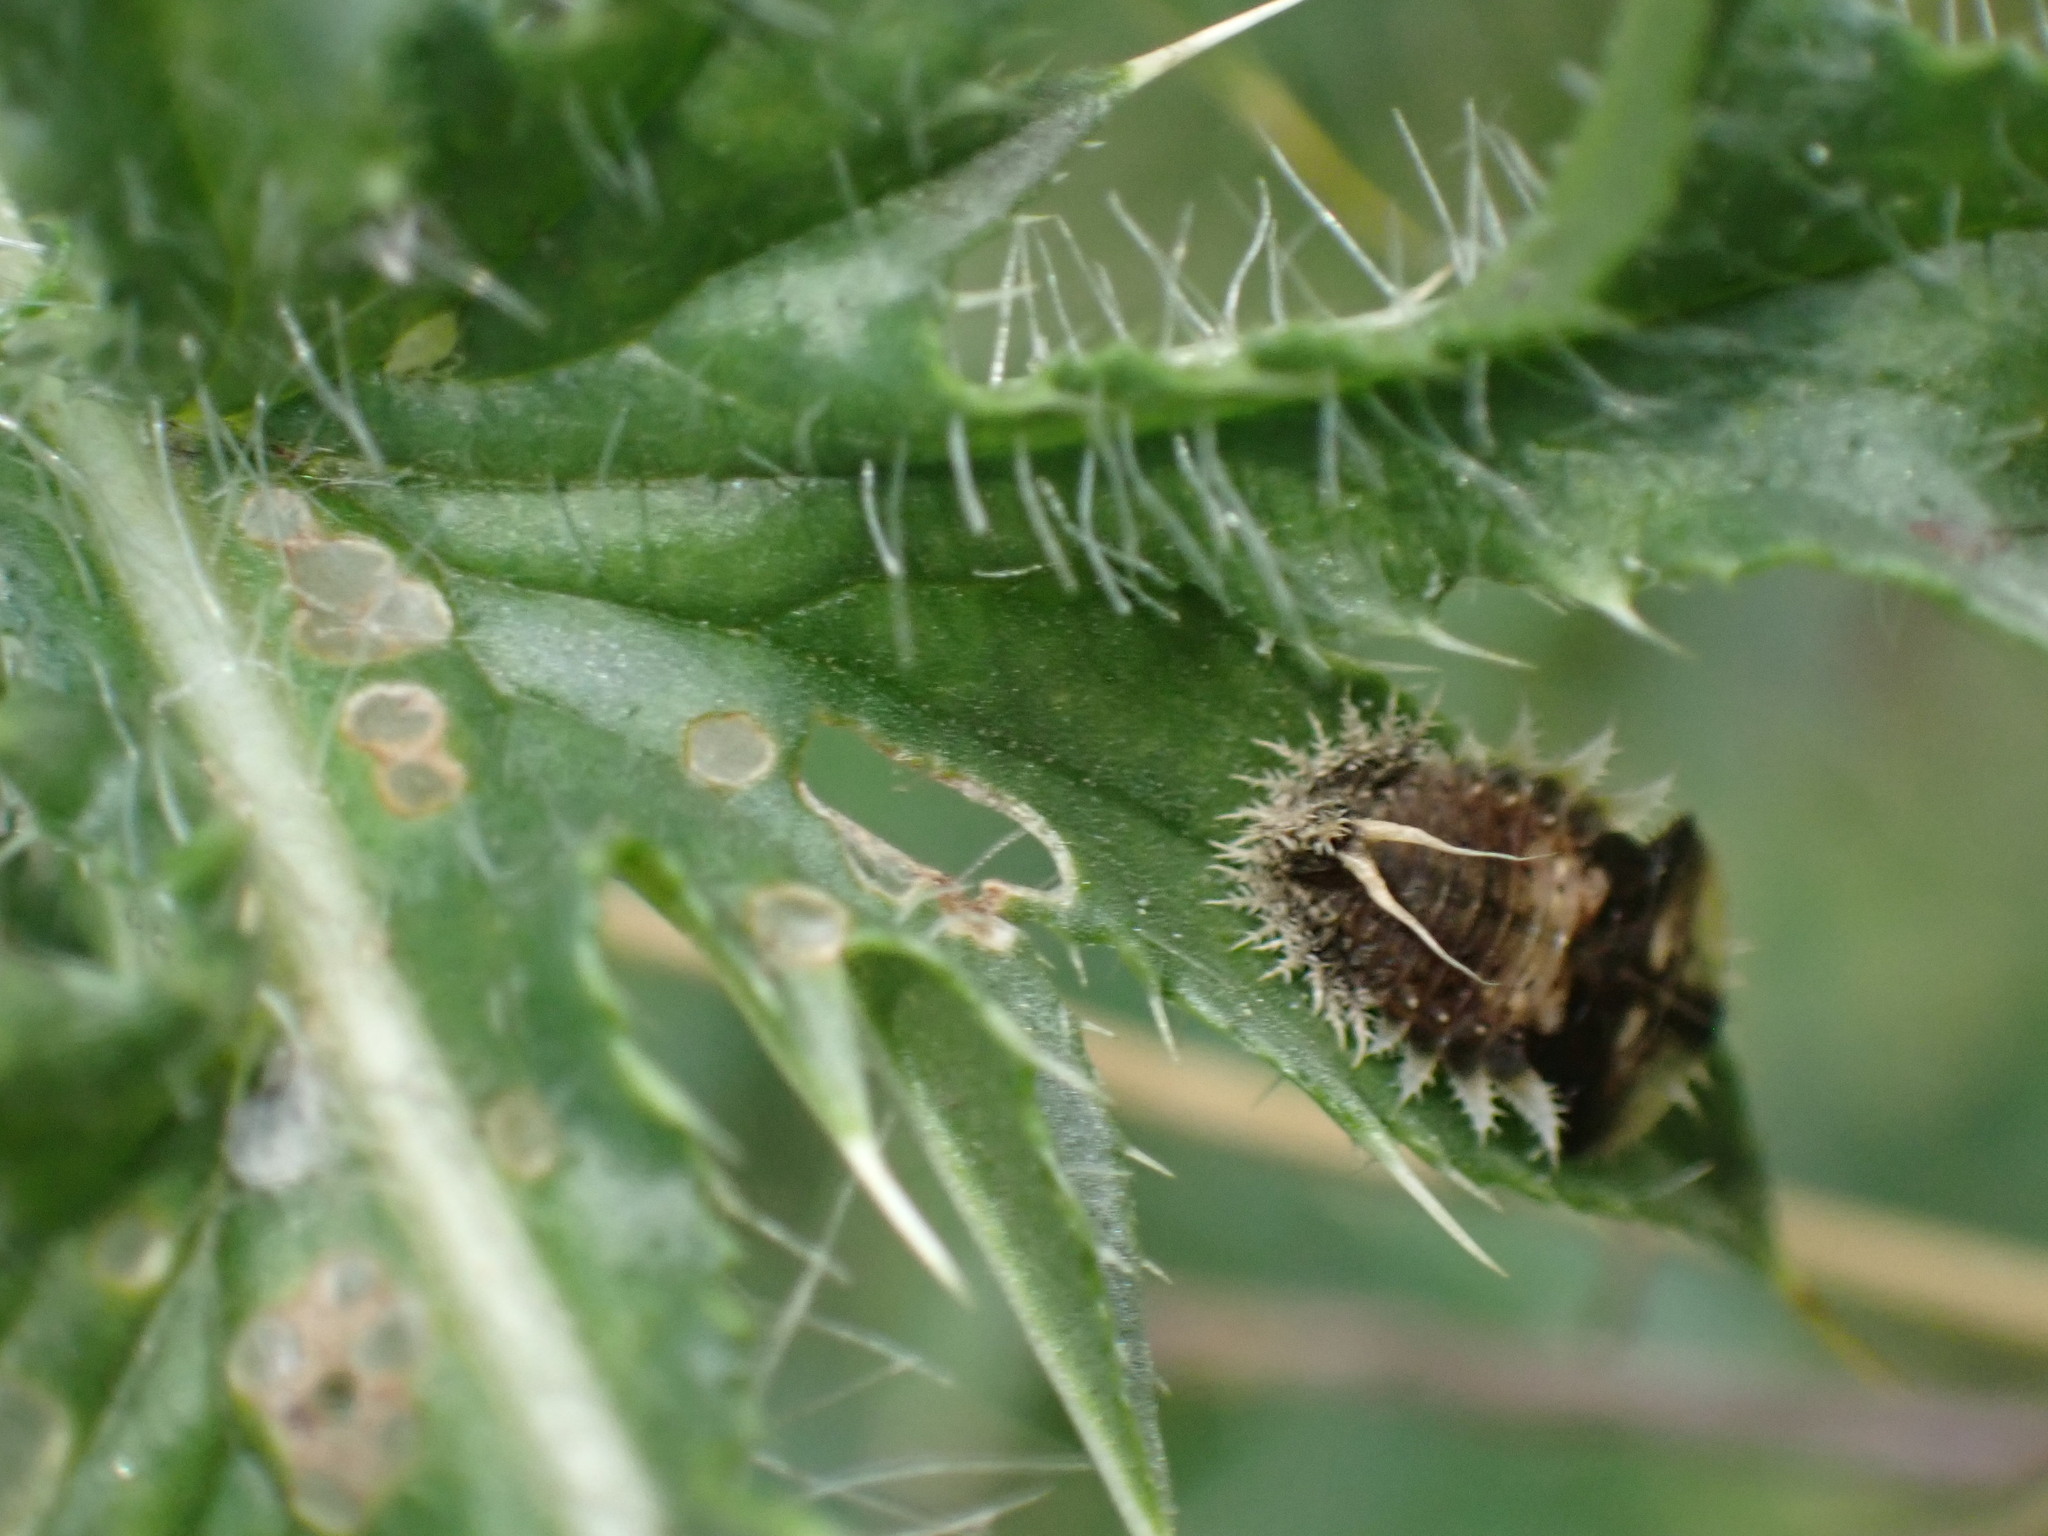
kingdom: Animalia
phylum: Arthropoda
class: Insecta
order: Coleoptera
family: Chrysomelidae
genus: Cassida
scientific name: Cassida rubiginosa
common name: Thistle tortoise beetle
